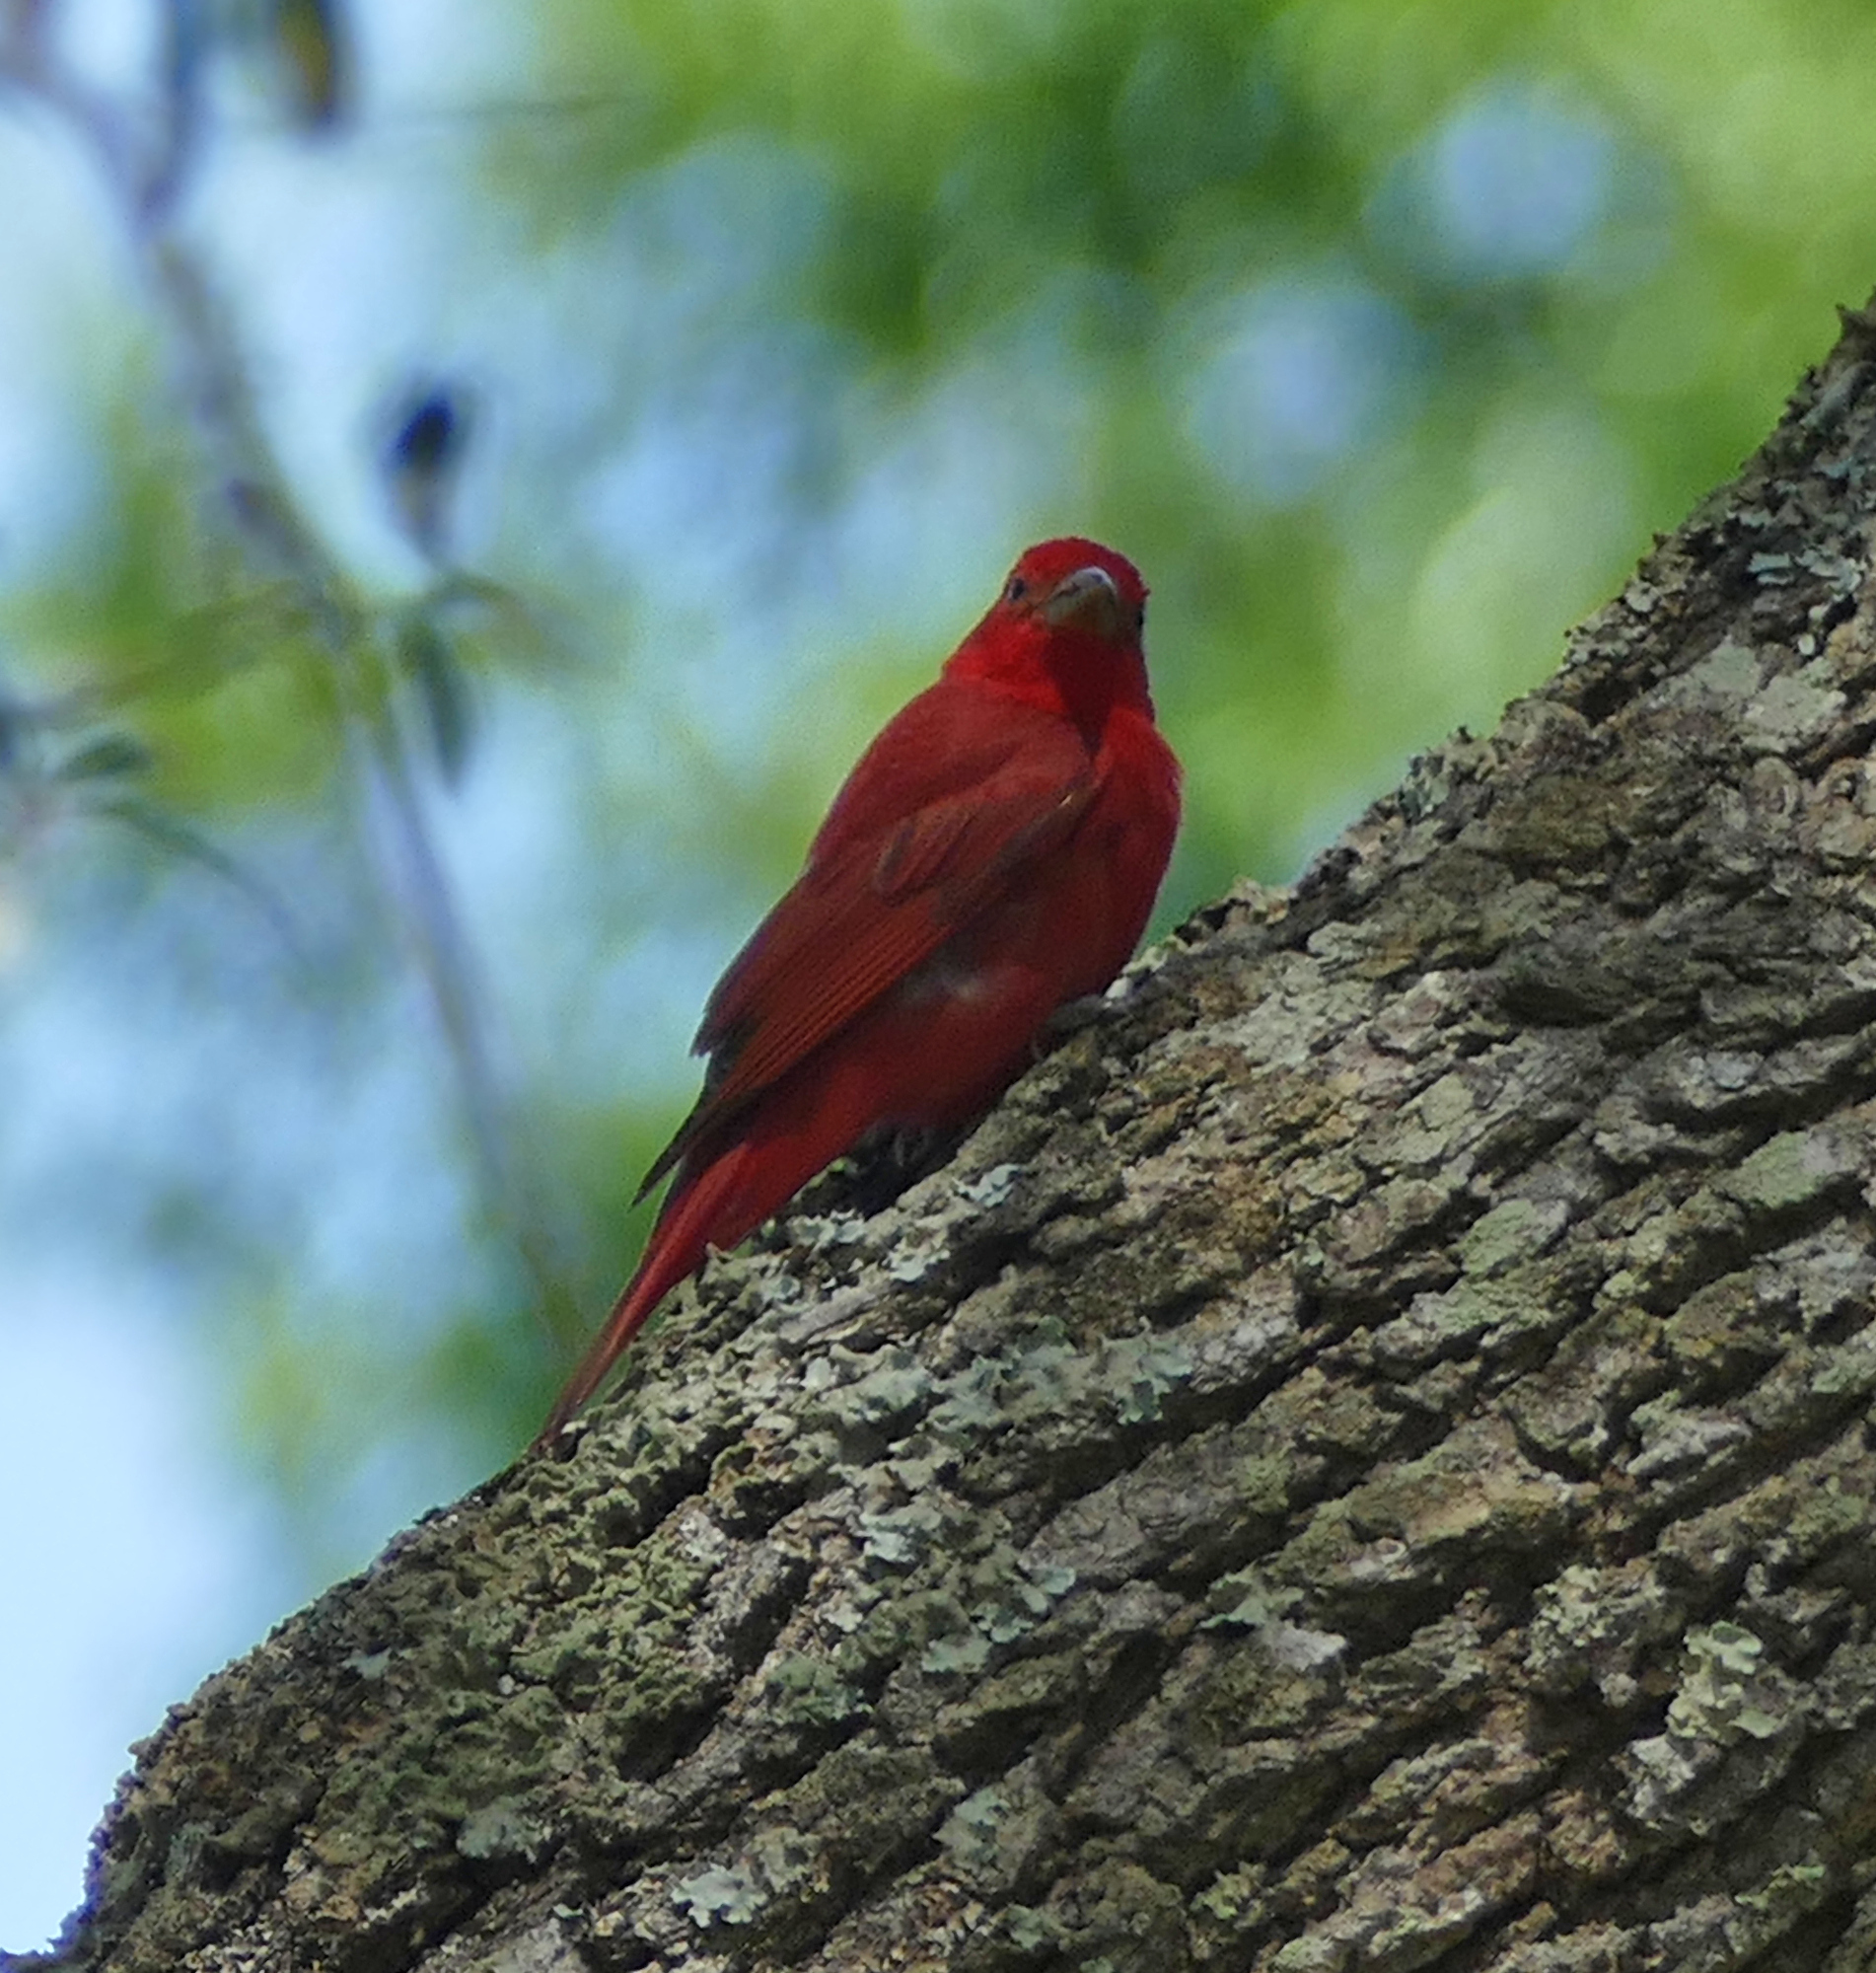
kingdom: Animalia
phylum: Chordata
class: Aves
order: Passeriformes
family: Cardinalidae
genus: Piranga
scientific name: Piranga rubra
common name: Summer tanager
